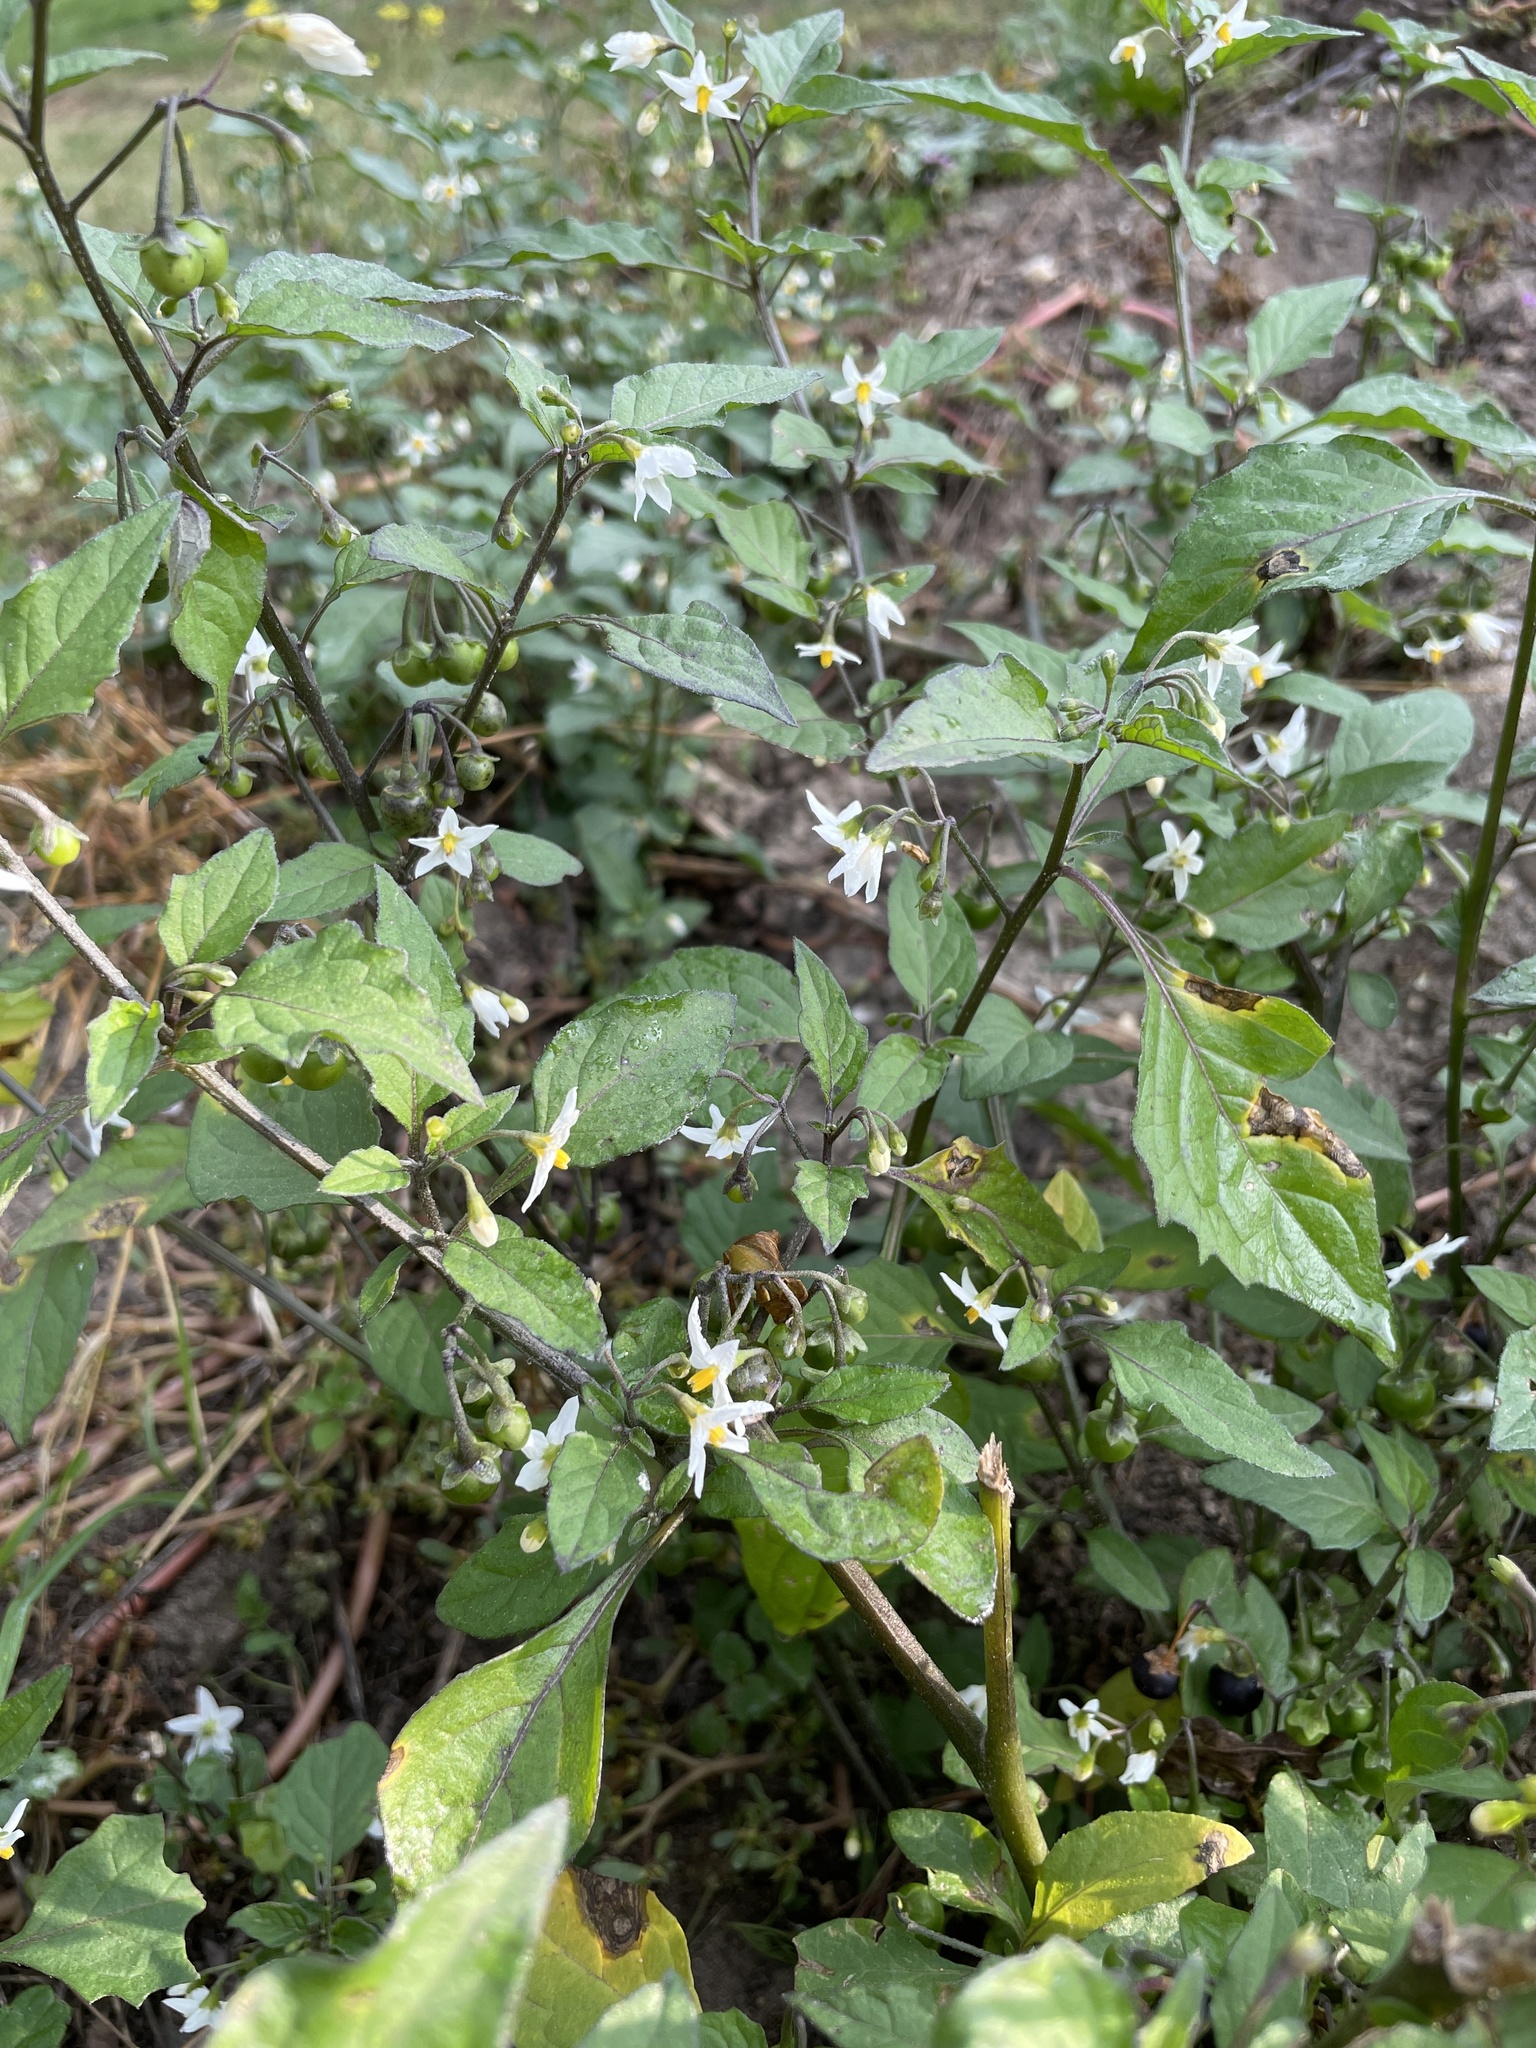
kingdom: Plantae
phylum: Tracheophyta
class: Magnoliopsida
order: Solanales
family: Solanaceae
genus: Solanum
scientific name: Solanum nigrum
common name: Black nightshade
